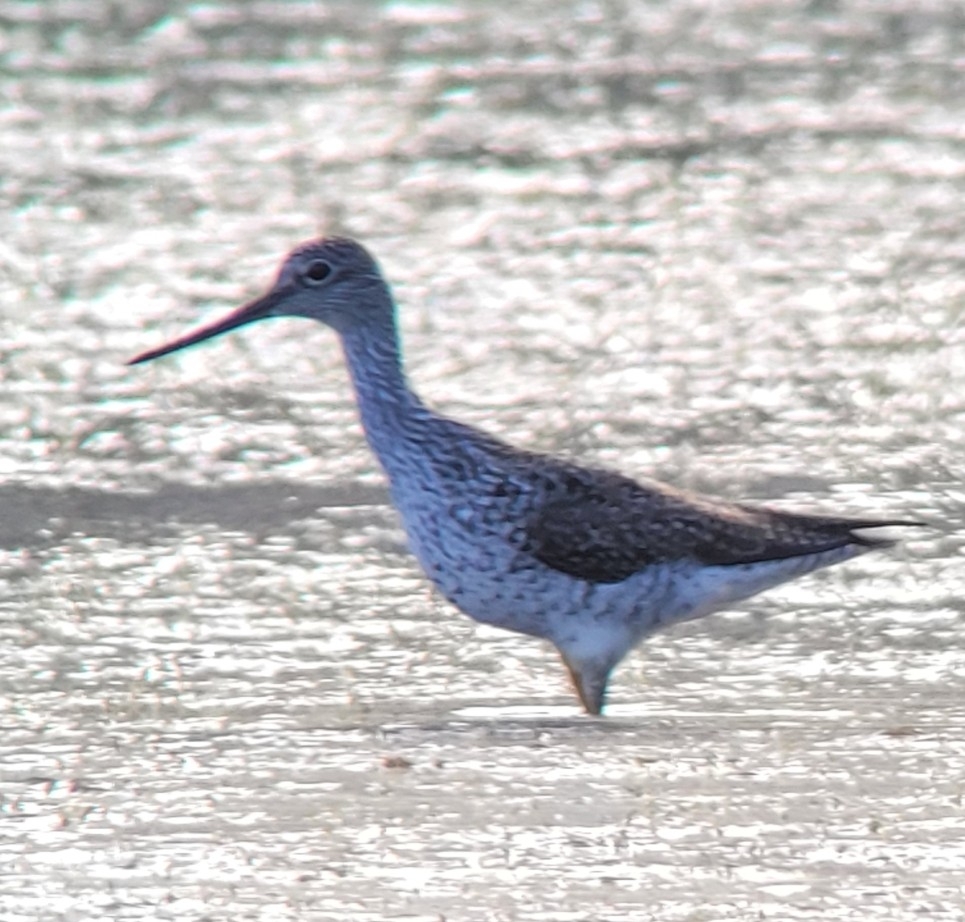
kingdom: Animalia
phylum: Chordata
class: Aves
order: Charadriiformes
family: Scolopacidae
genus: Tringa
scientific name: Tringa melanoleuca
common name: Greater yellowlegs
